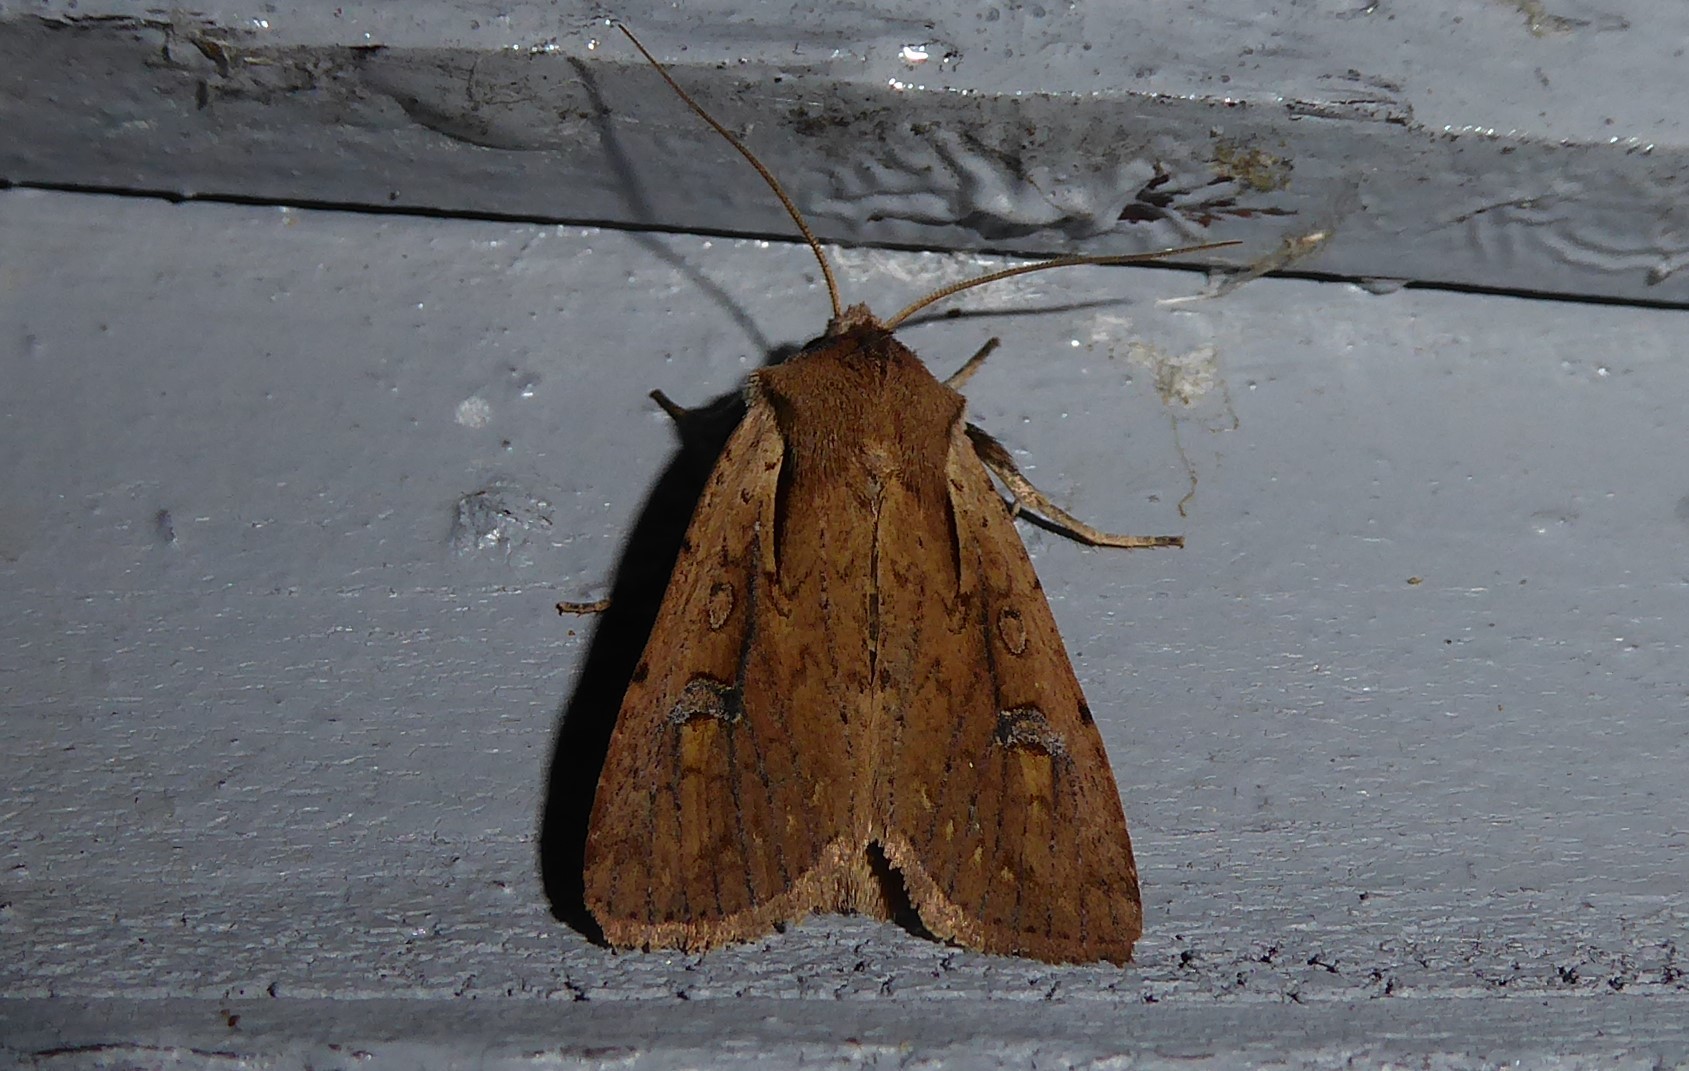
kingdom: Animalia
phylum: Arthropoda
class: Insecta
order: Lepidoptera
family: Noctuidae
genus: Ichneutica
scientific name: Ichneutica atristriga
